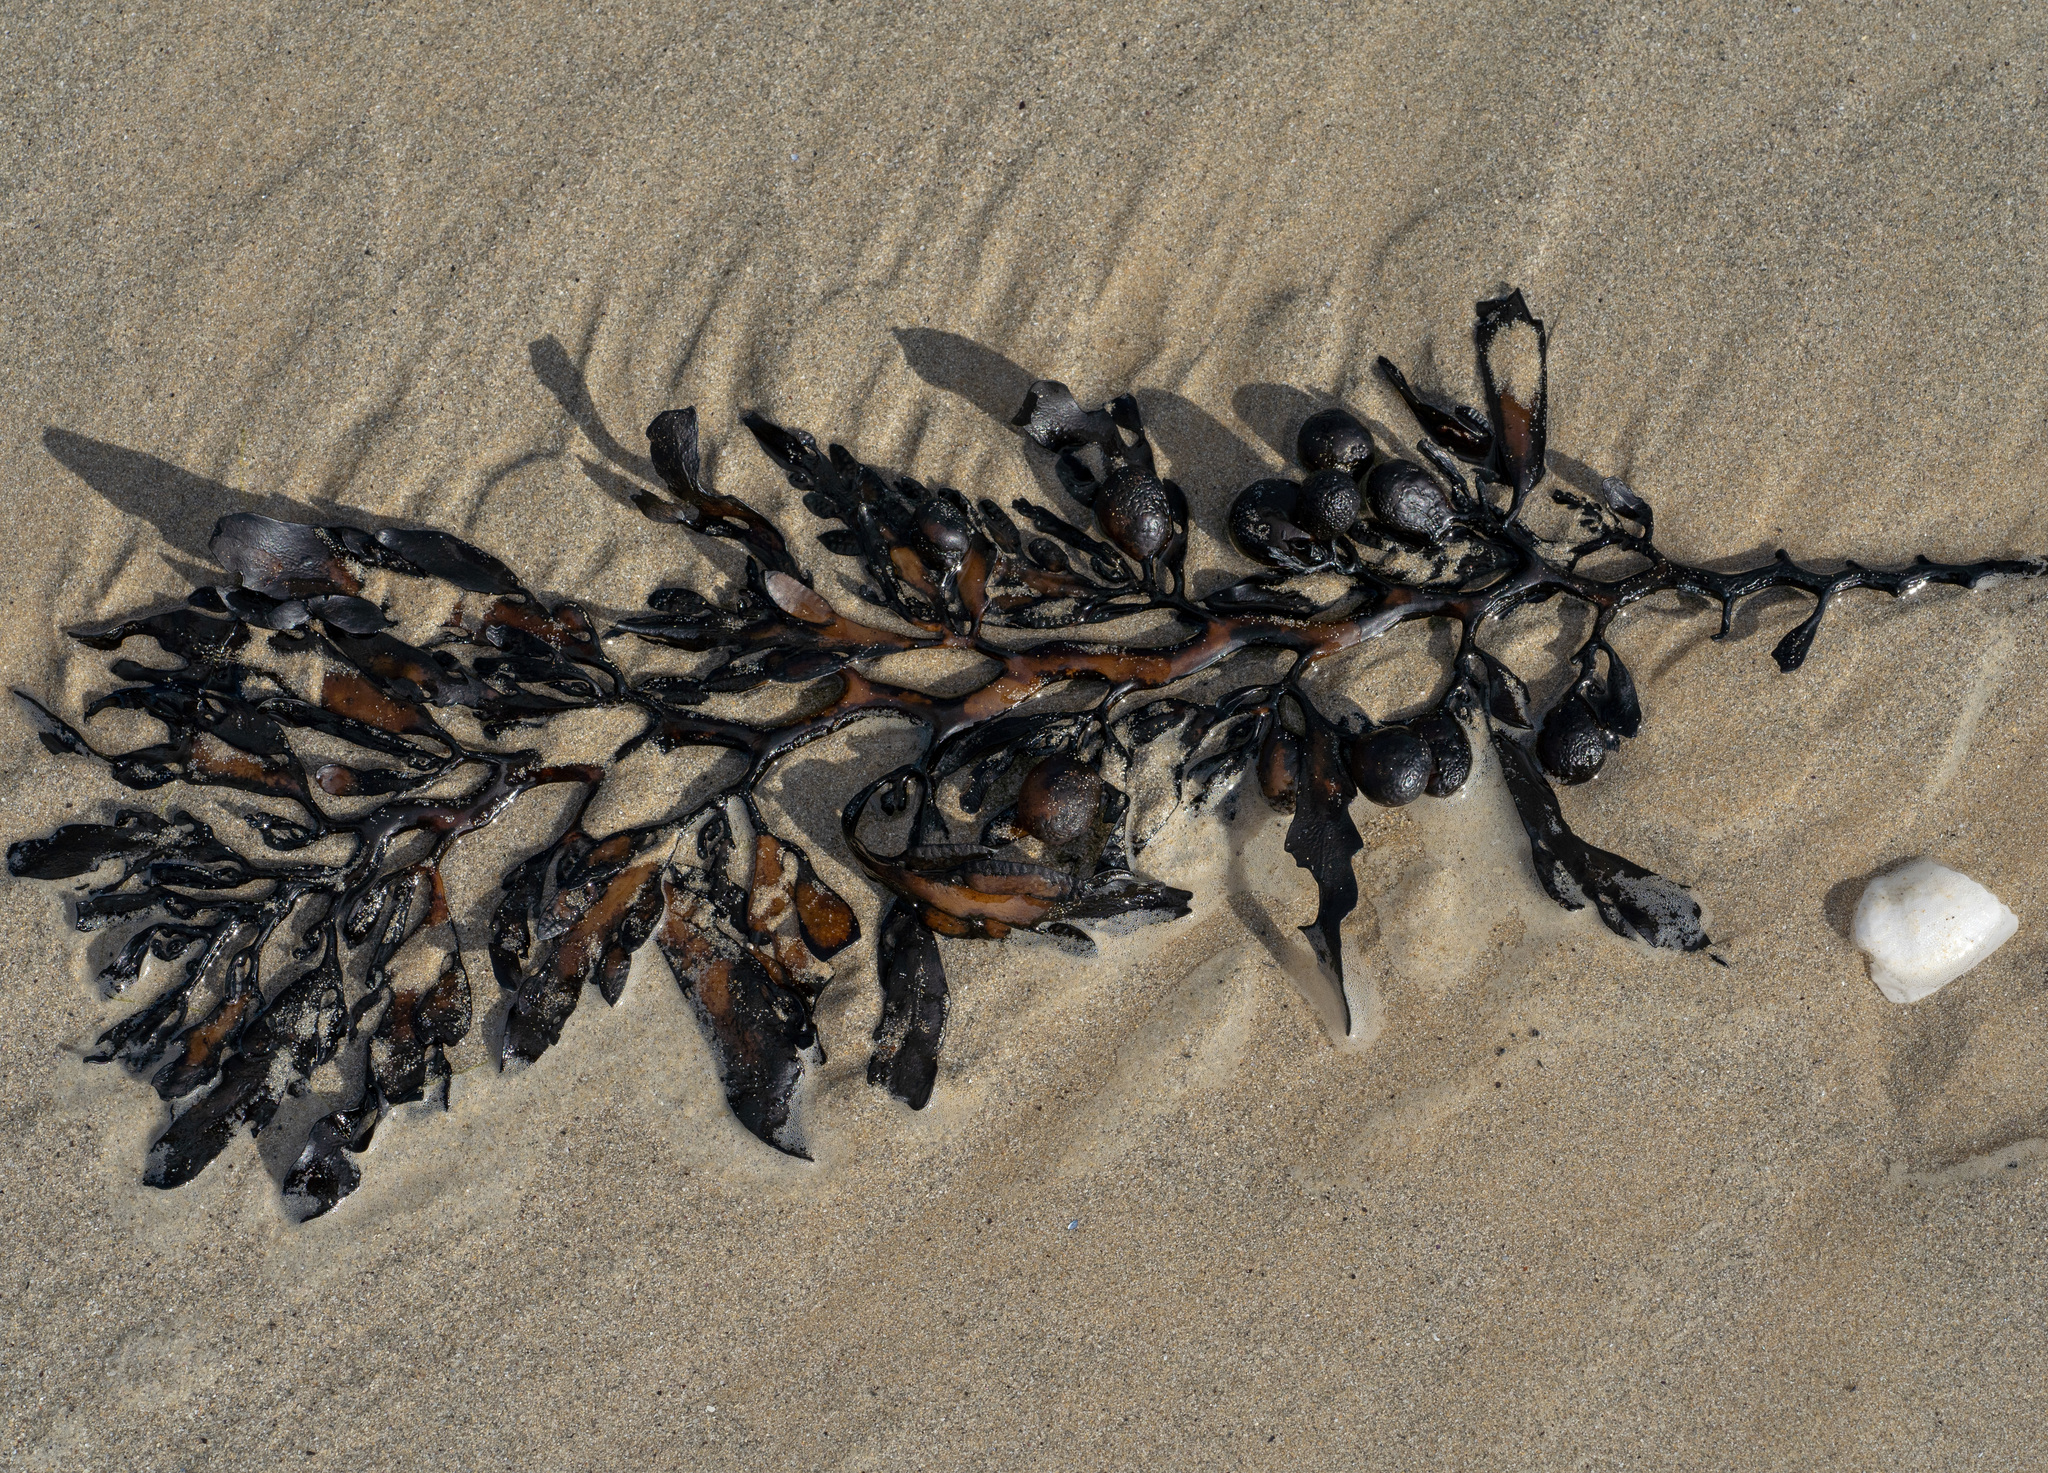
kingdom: Chromista
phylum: Ochrophyta
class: Phaeophyceae
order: Fucales
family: Sargassaceae
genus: Cystophora
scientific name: Cystophora platylobium
